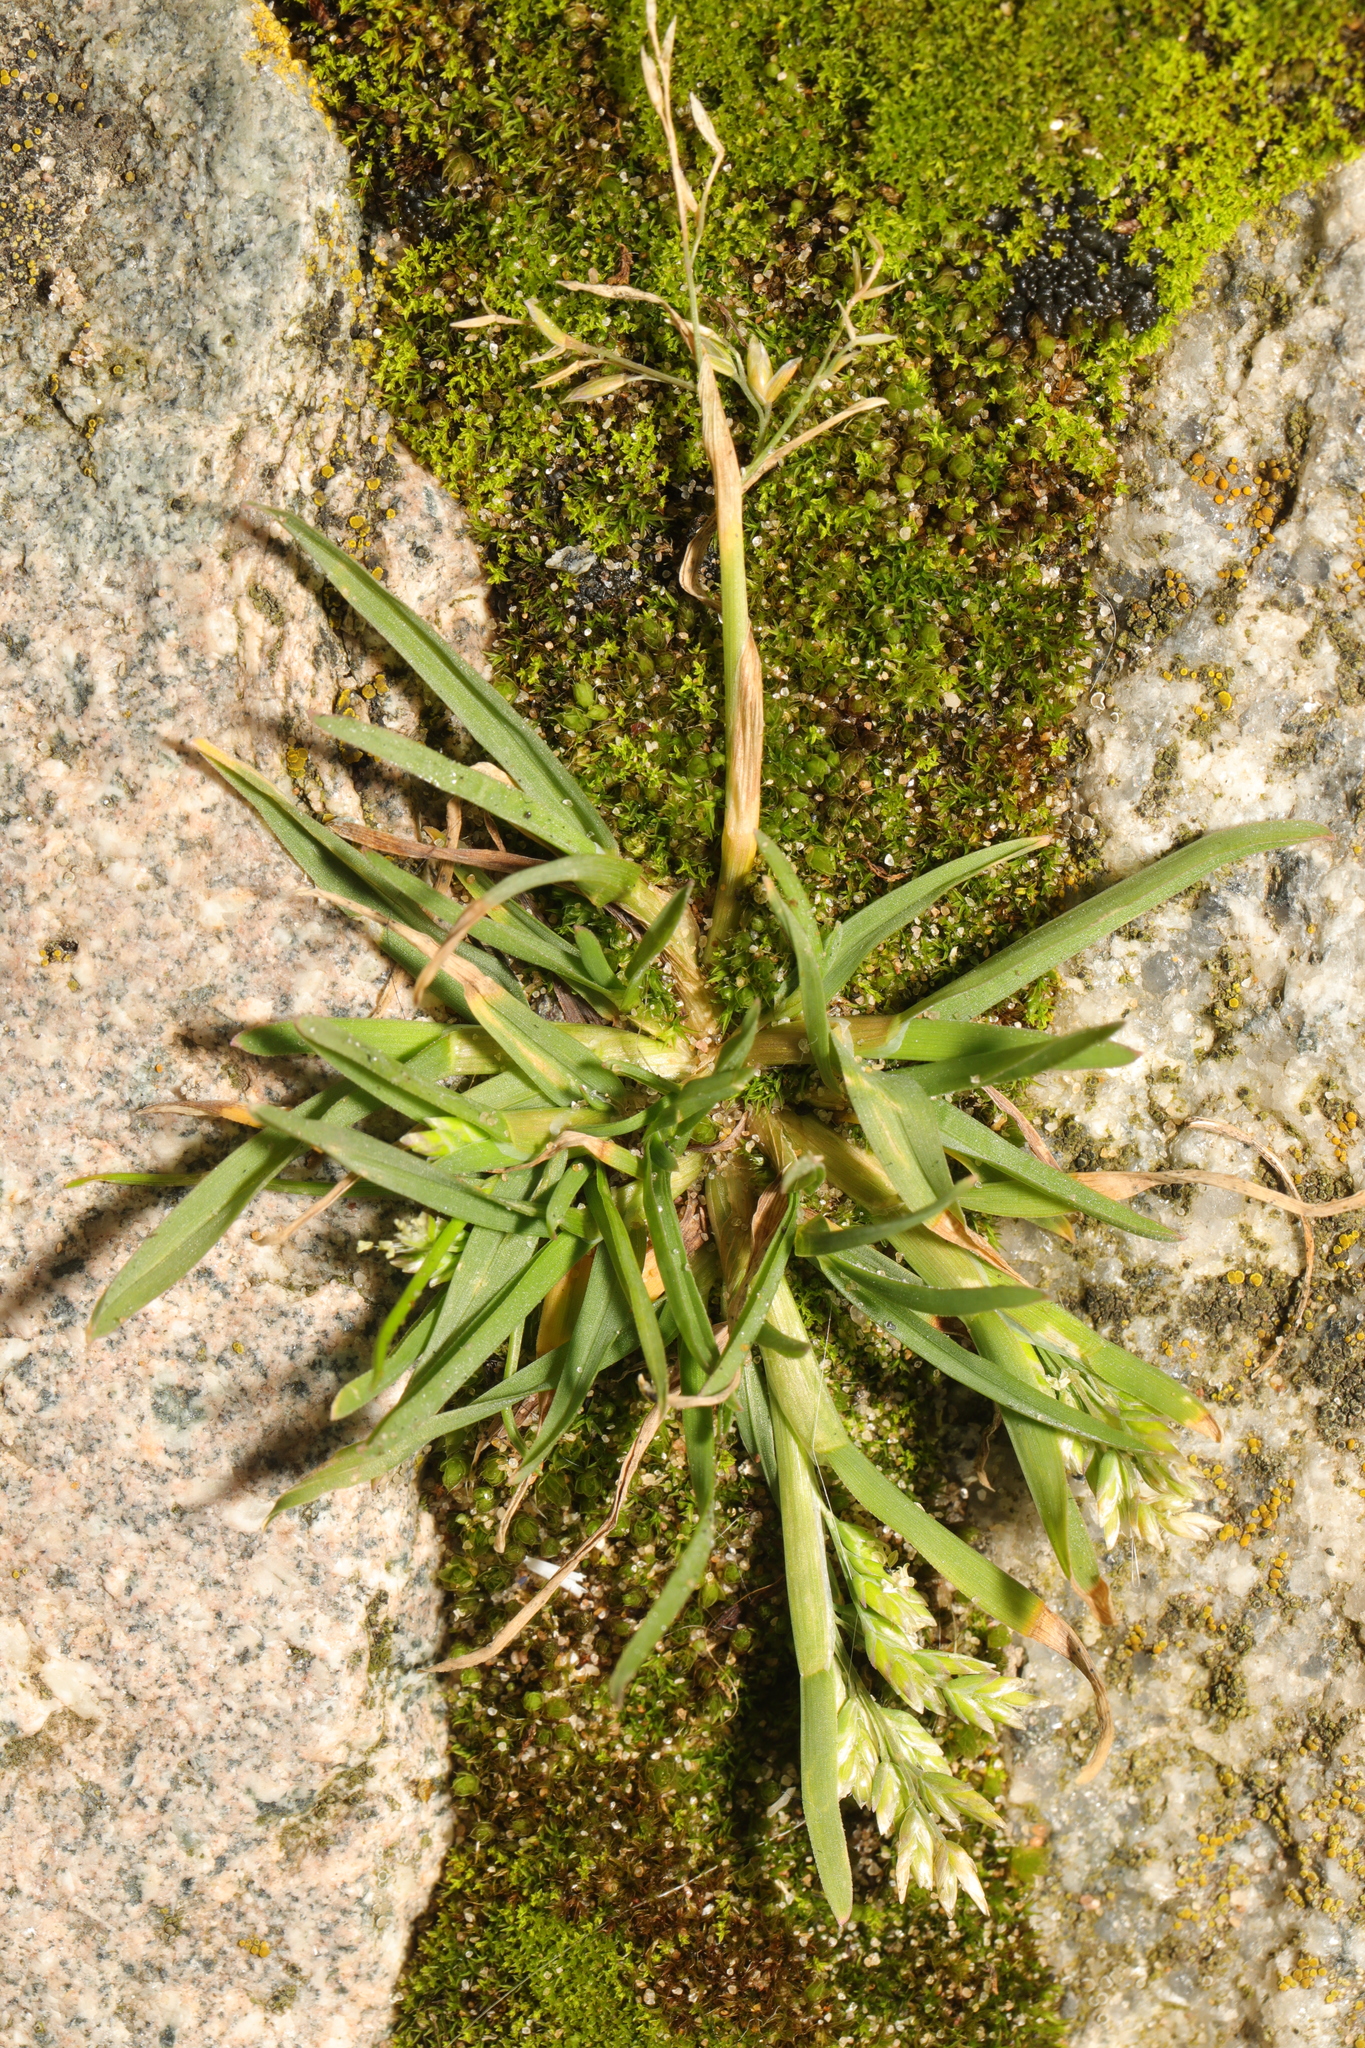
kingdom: Plantae
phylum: Tracheophyta
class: Liliopsida
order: Poales
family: Poaceae
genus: Poa
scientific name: Poa annua
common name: Annual bluegrass
